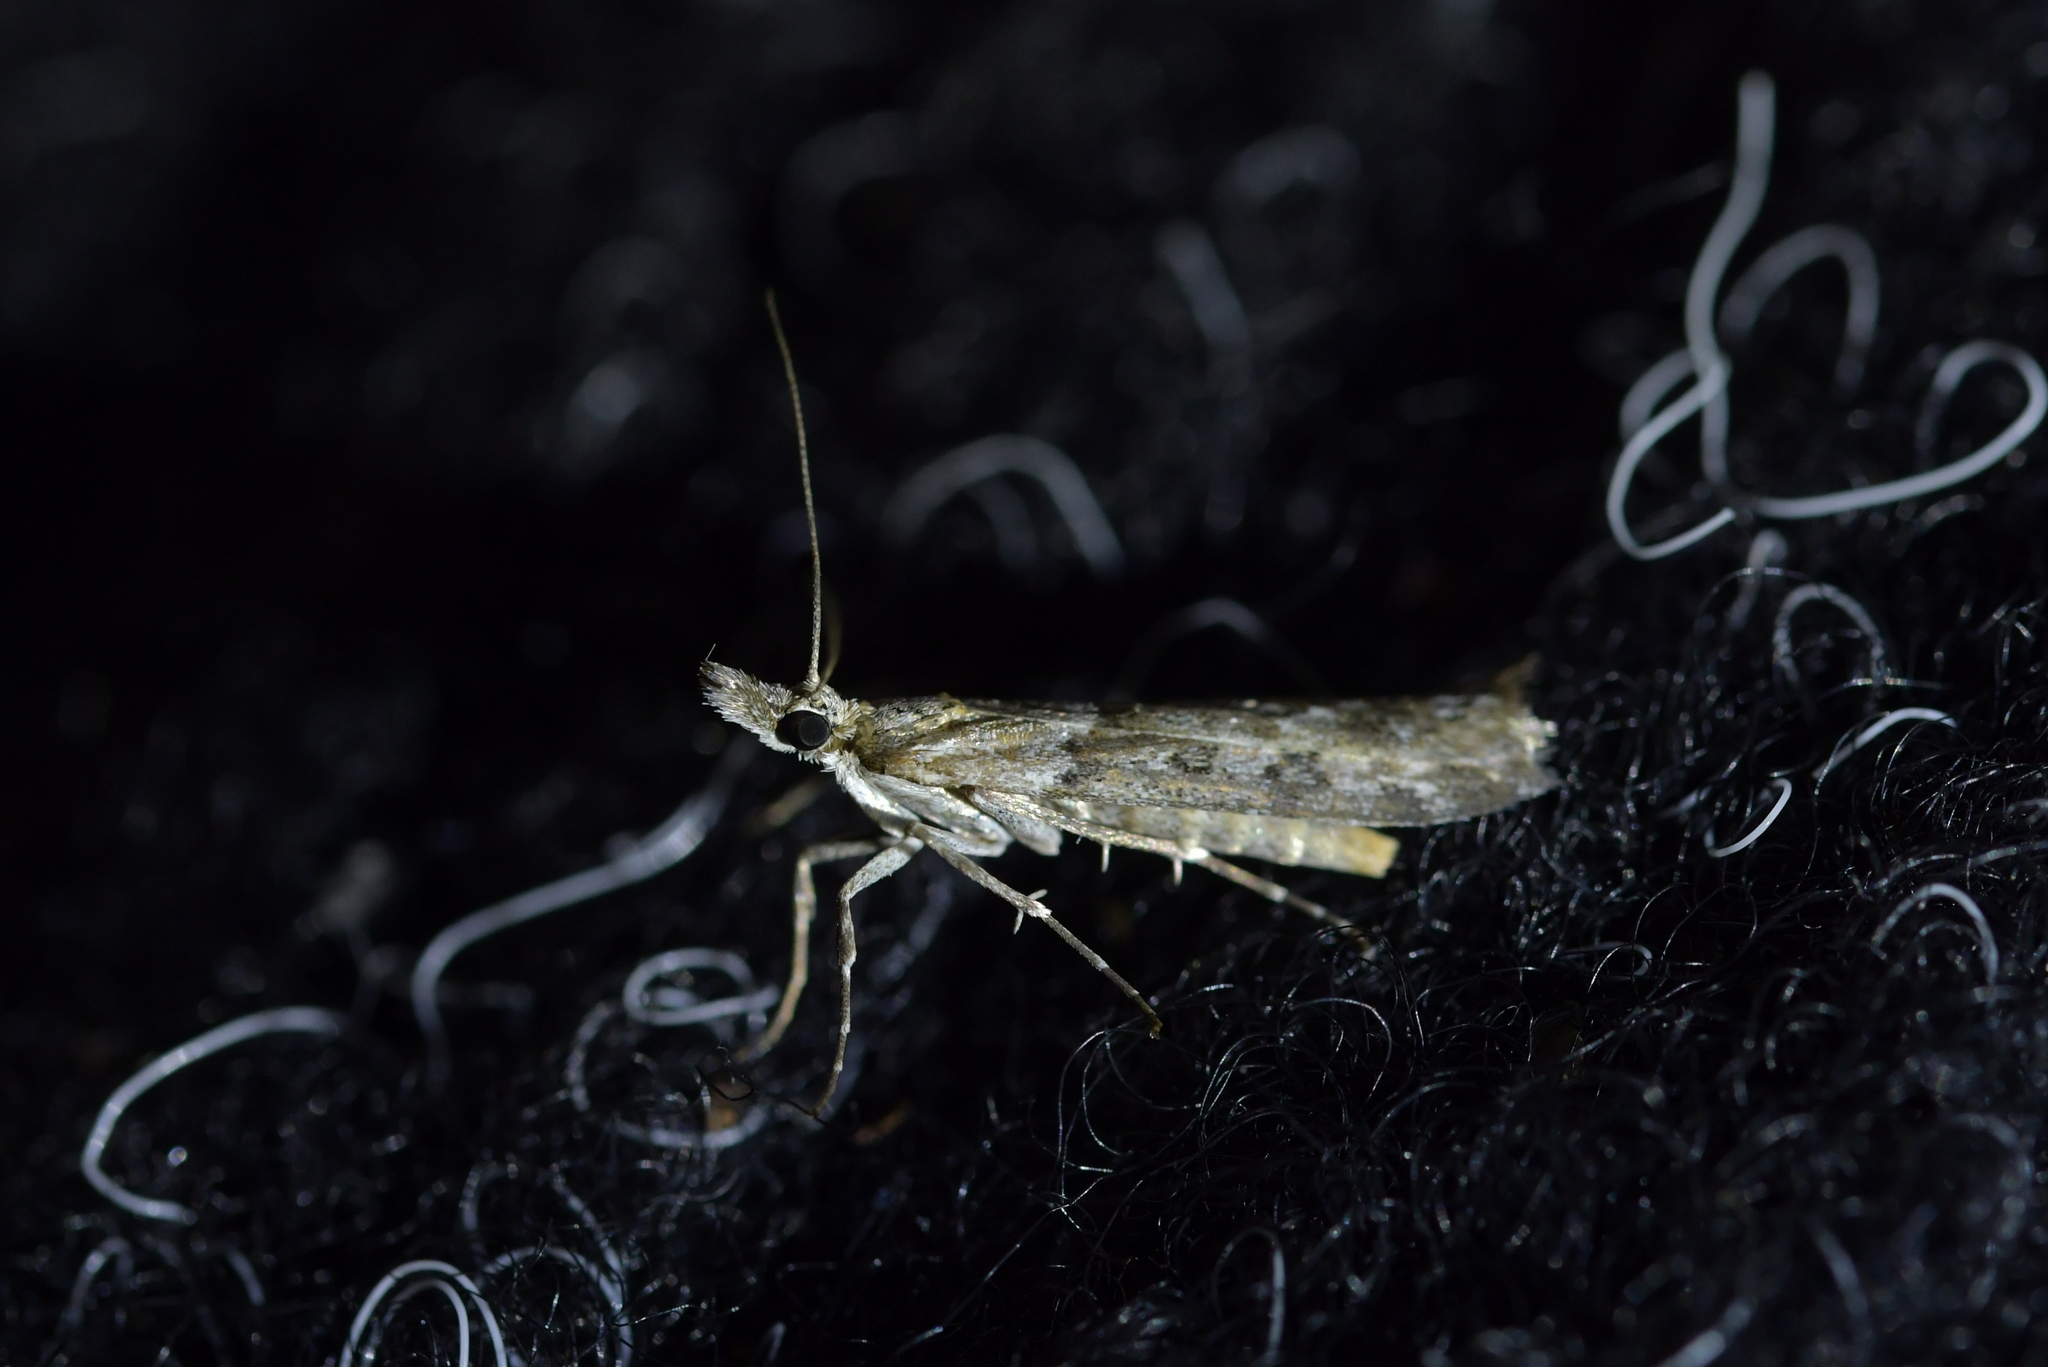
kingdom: Animalia
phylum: Arthropoda
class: Insecta
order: Lepidoptera
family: Crambidae
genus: Orocrambus
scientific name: Orocrambus cyclopicus
